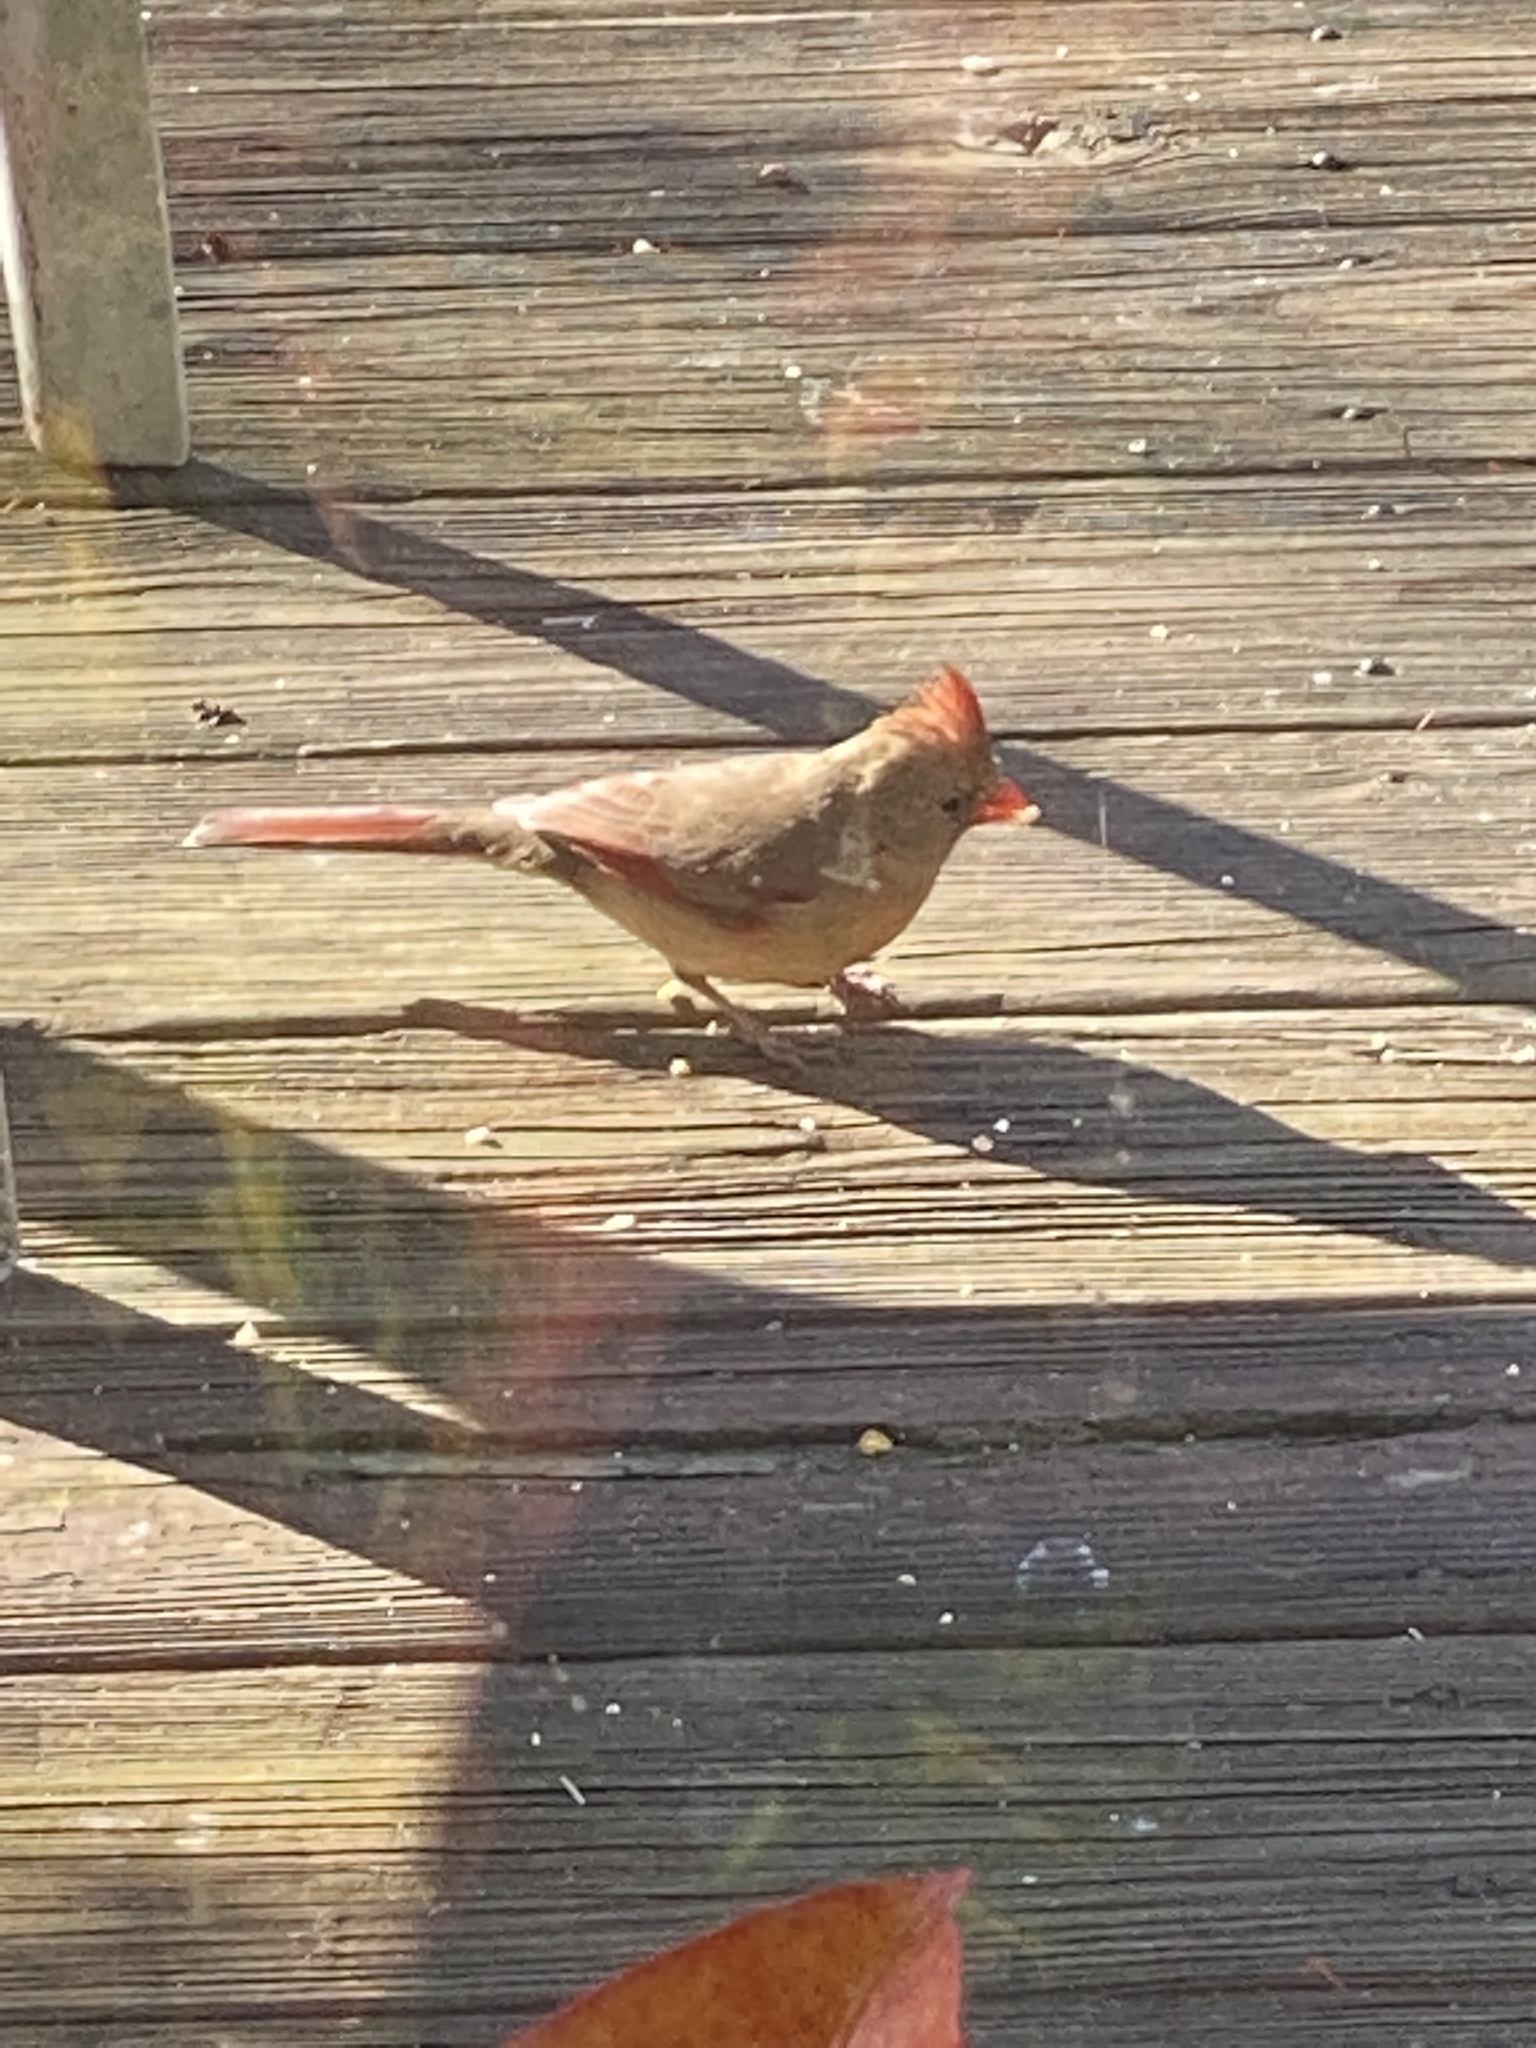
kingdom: Animalia
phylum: Chordata
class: Aves
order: Passeriformes
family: Cardinalidae
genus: Cardinalis
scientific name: Cardinalis cardinalis
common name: Northern cardinal
